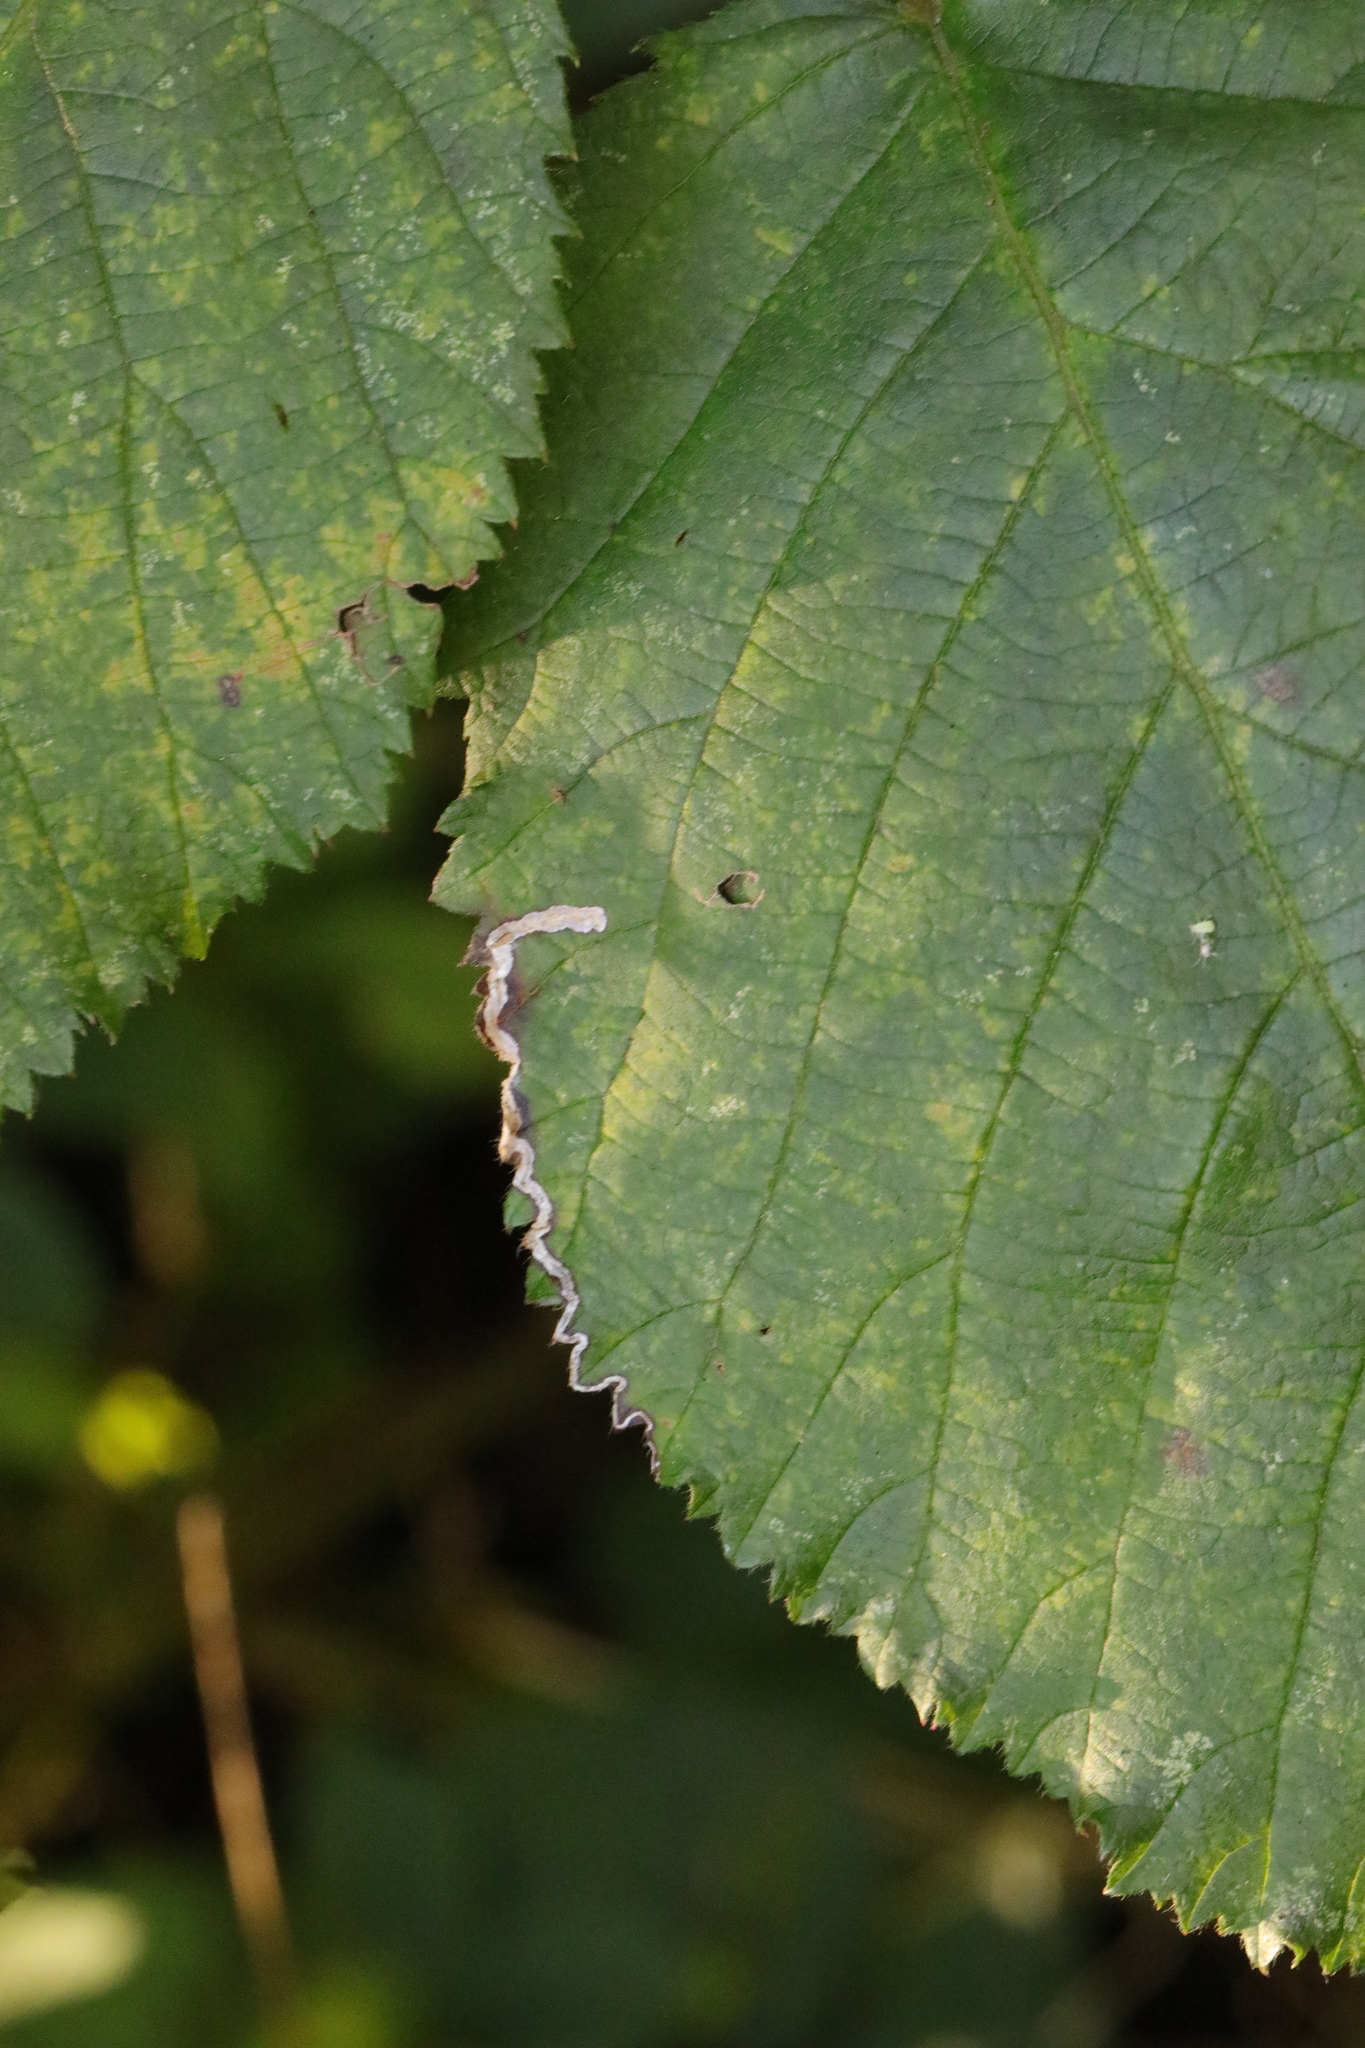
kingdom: Animalia
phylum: Arthropoda
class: Insecta
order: Lepidoptera
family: Nepticulidae
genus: Stigmella
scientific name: Stigmella aurella
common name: Golden pigmy
